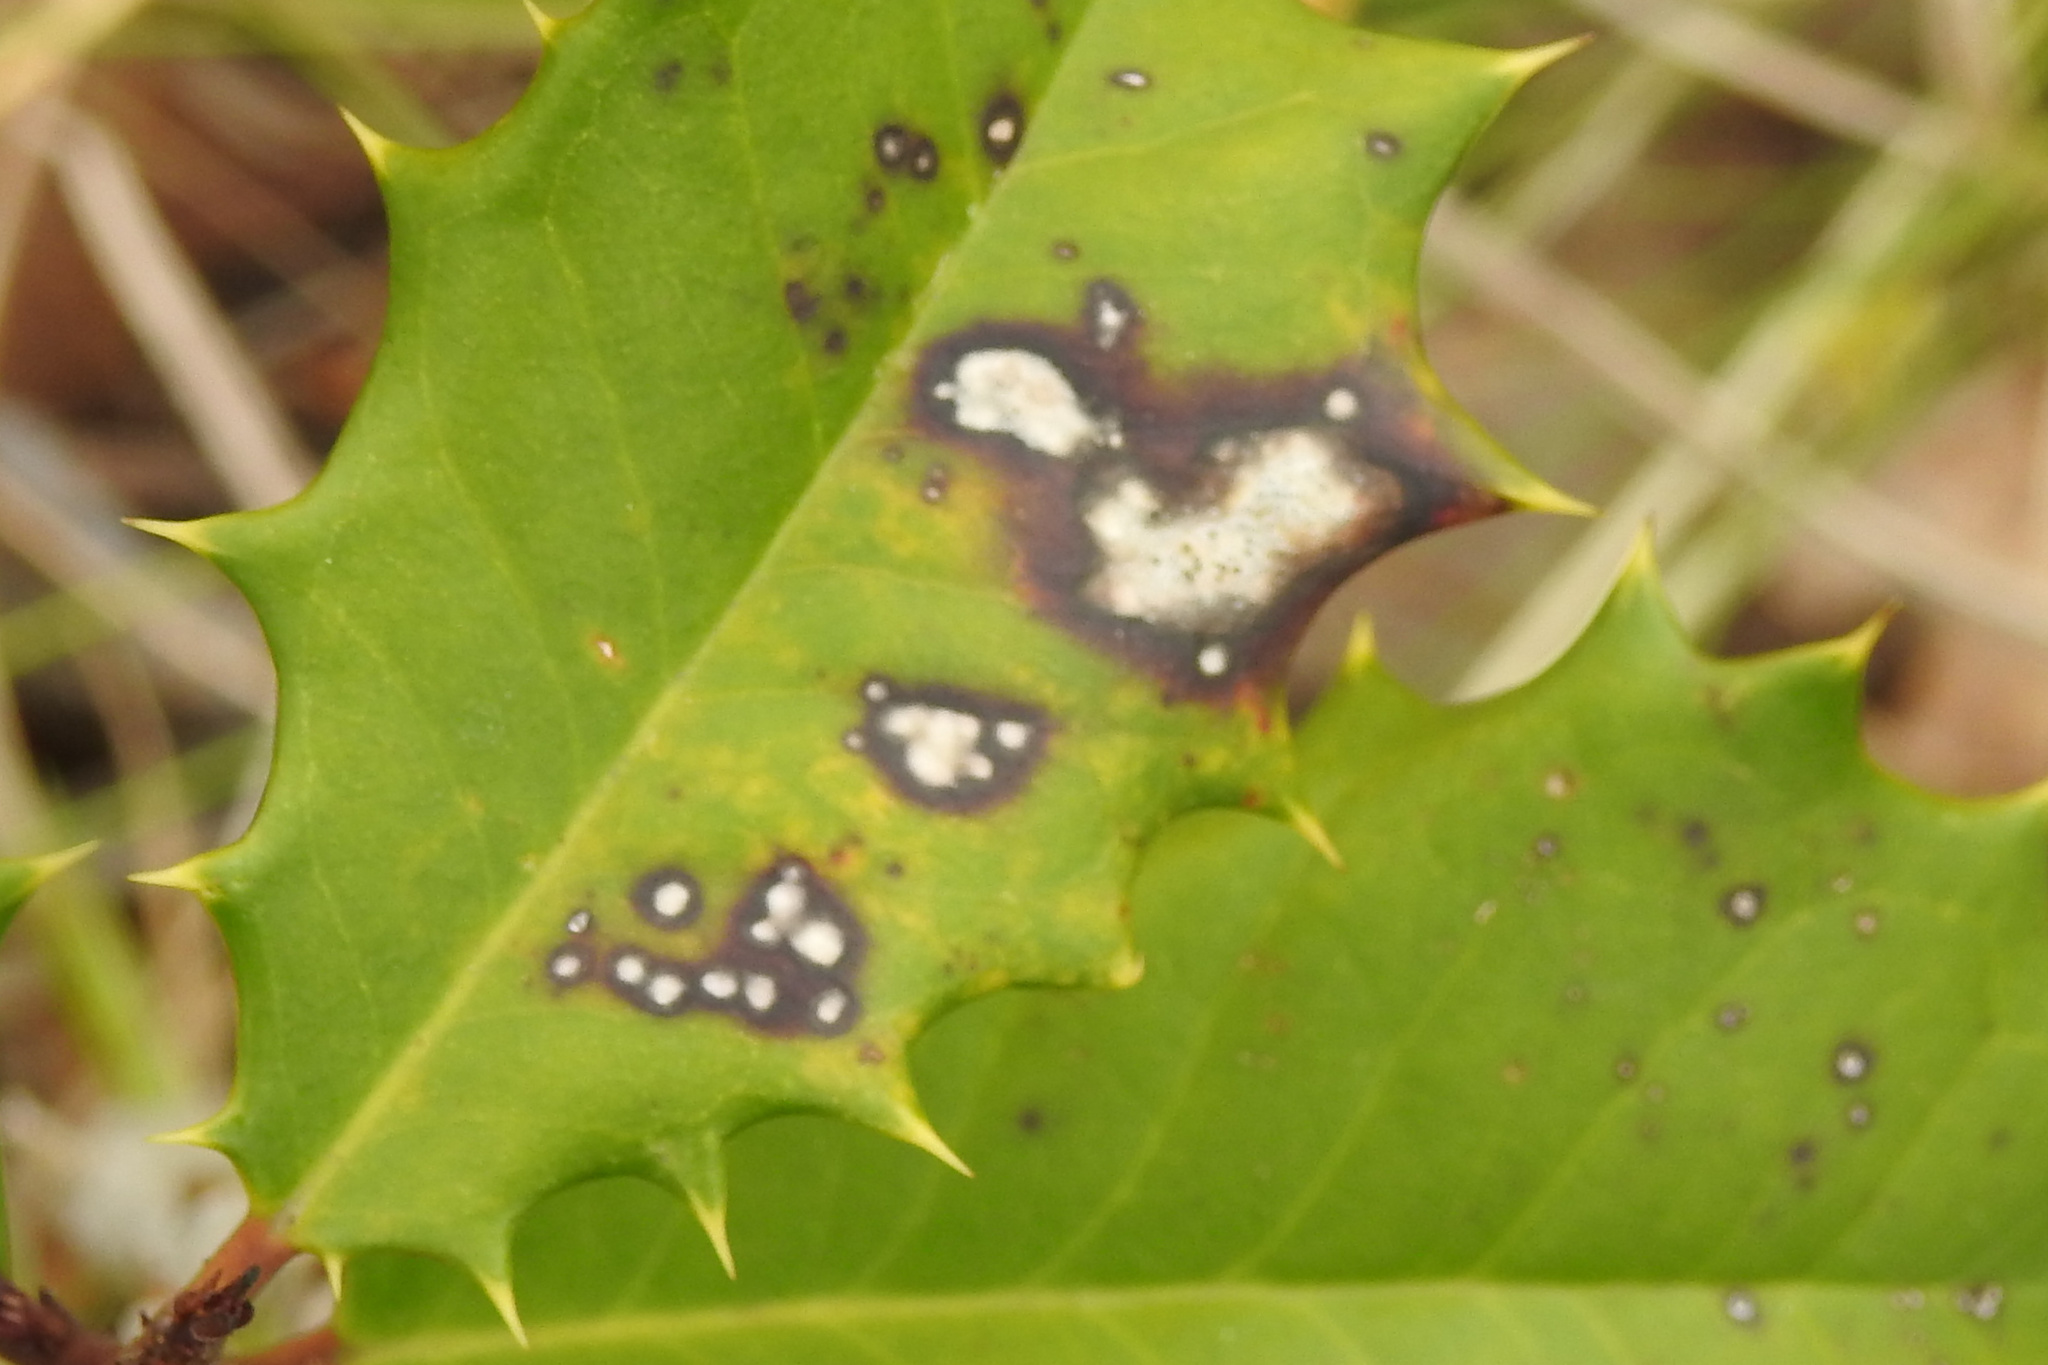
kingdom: Fungi
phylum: Ascomycota
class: Dothideomycetes
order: Pleosporales
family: Coniothyriaceae
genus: Coniothyrium
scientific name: Coniothyrium ilicinum
